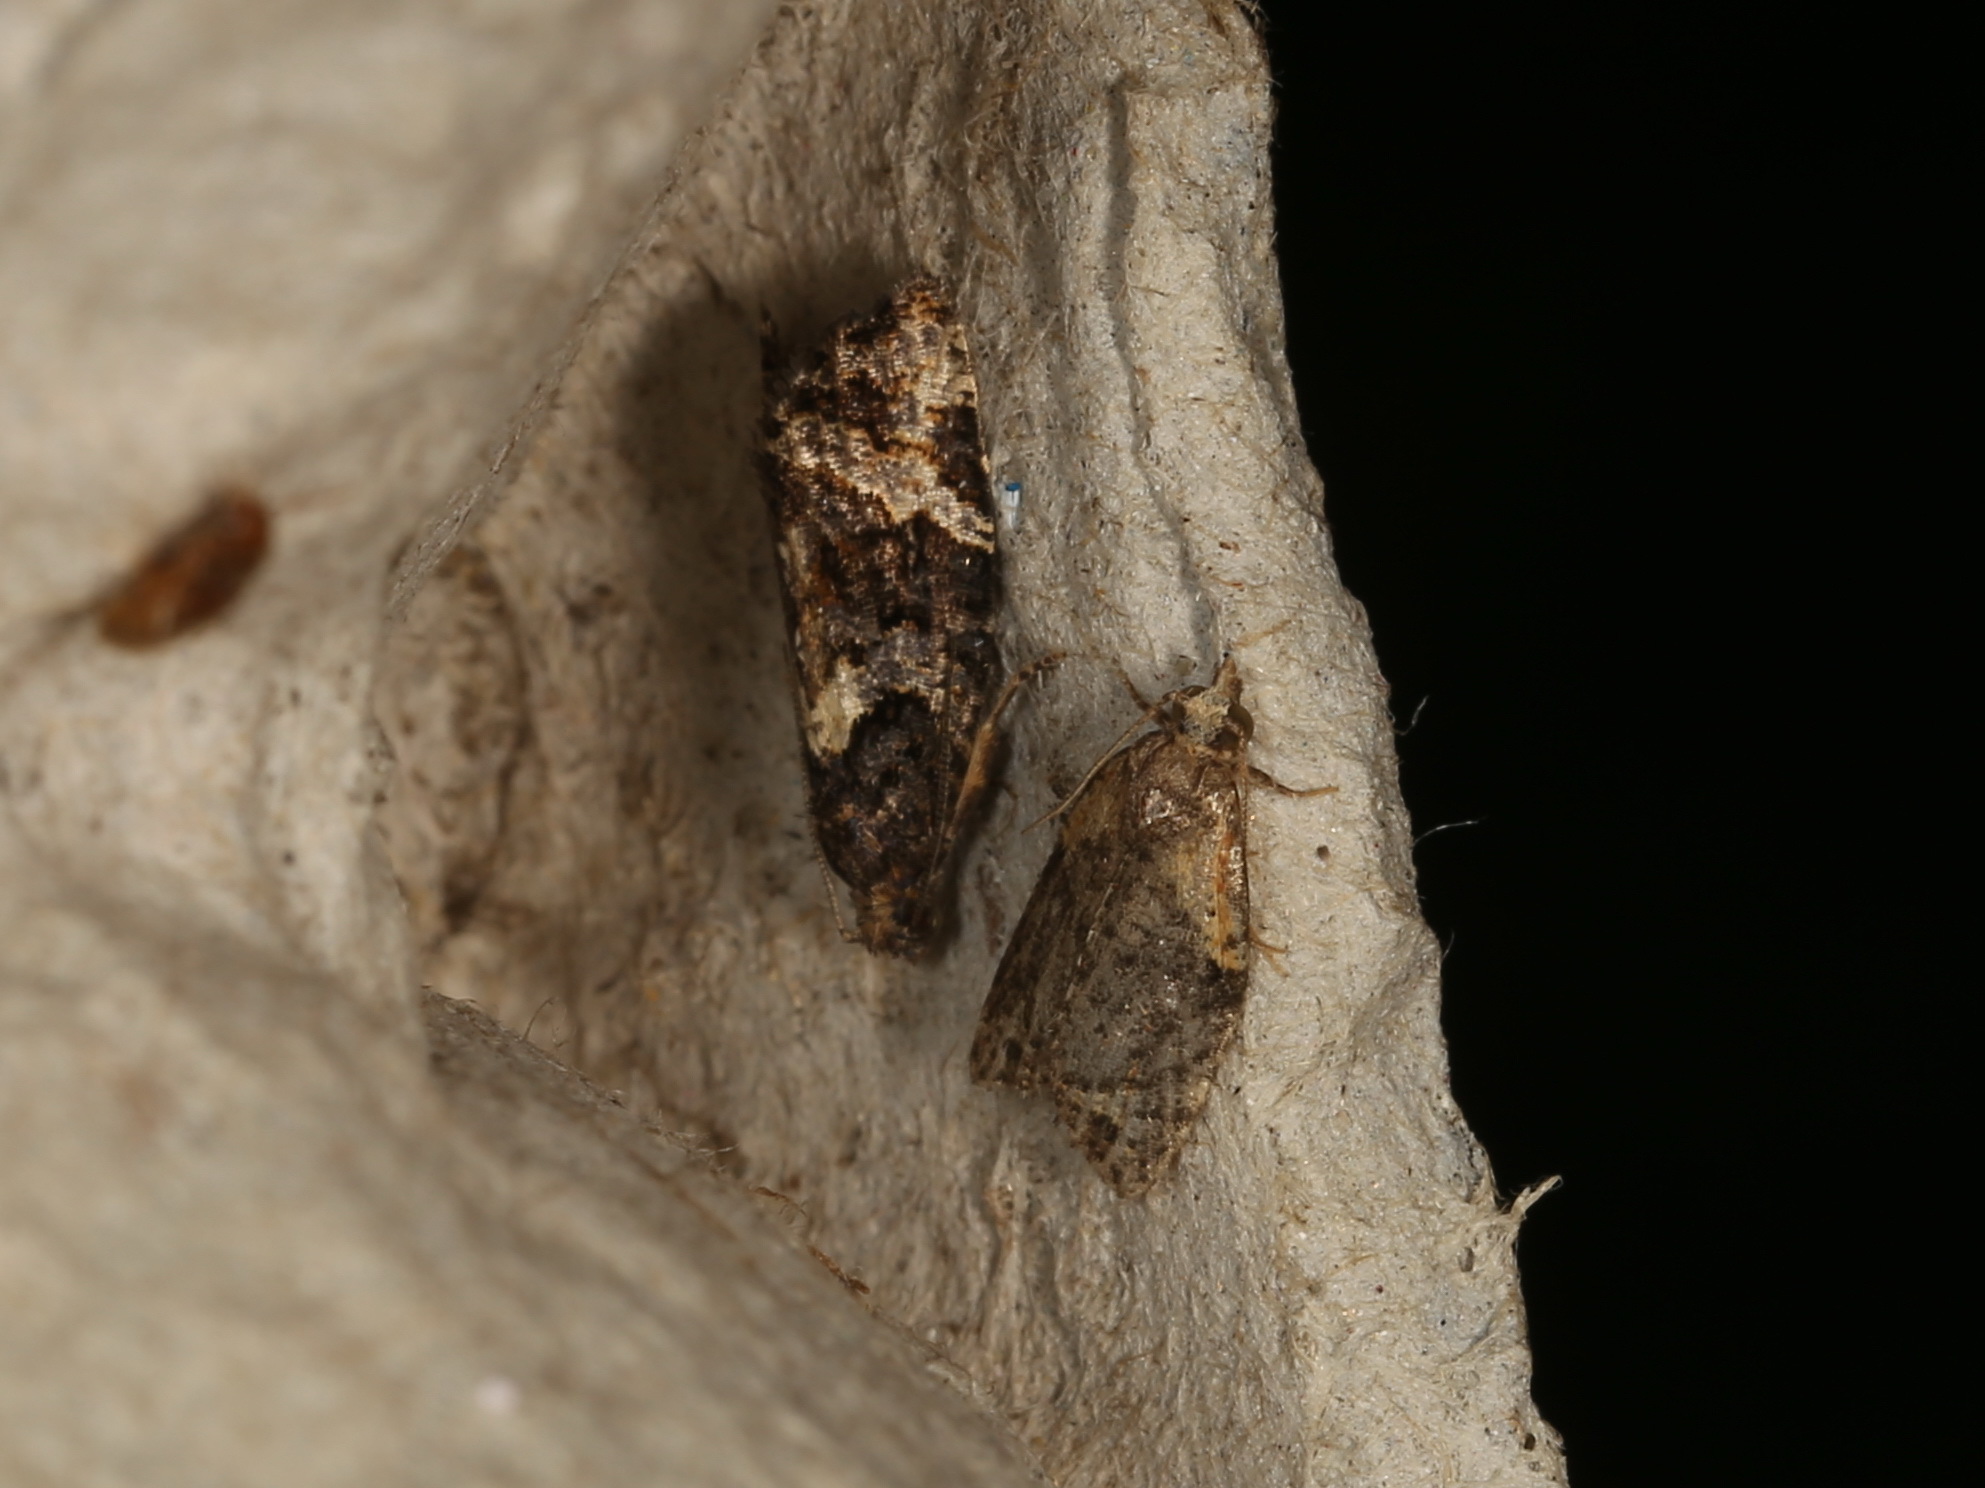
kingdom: Animalia
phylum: Arthropoda
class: Insecta
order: Lepidoptera
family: Tortricidae
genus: Capua
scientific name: Capua intractana
